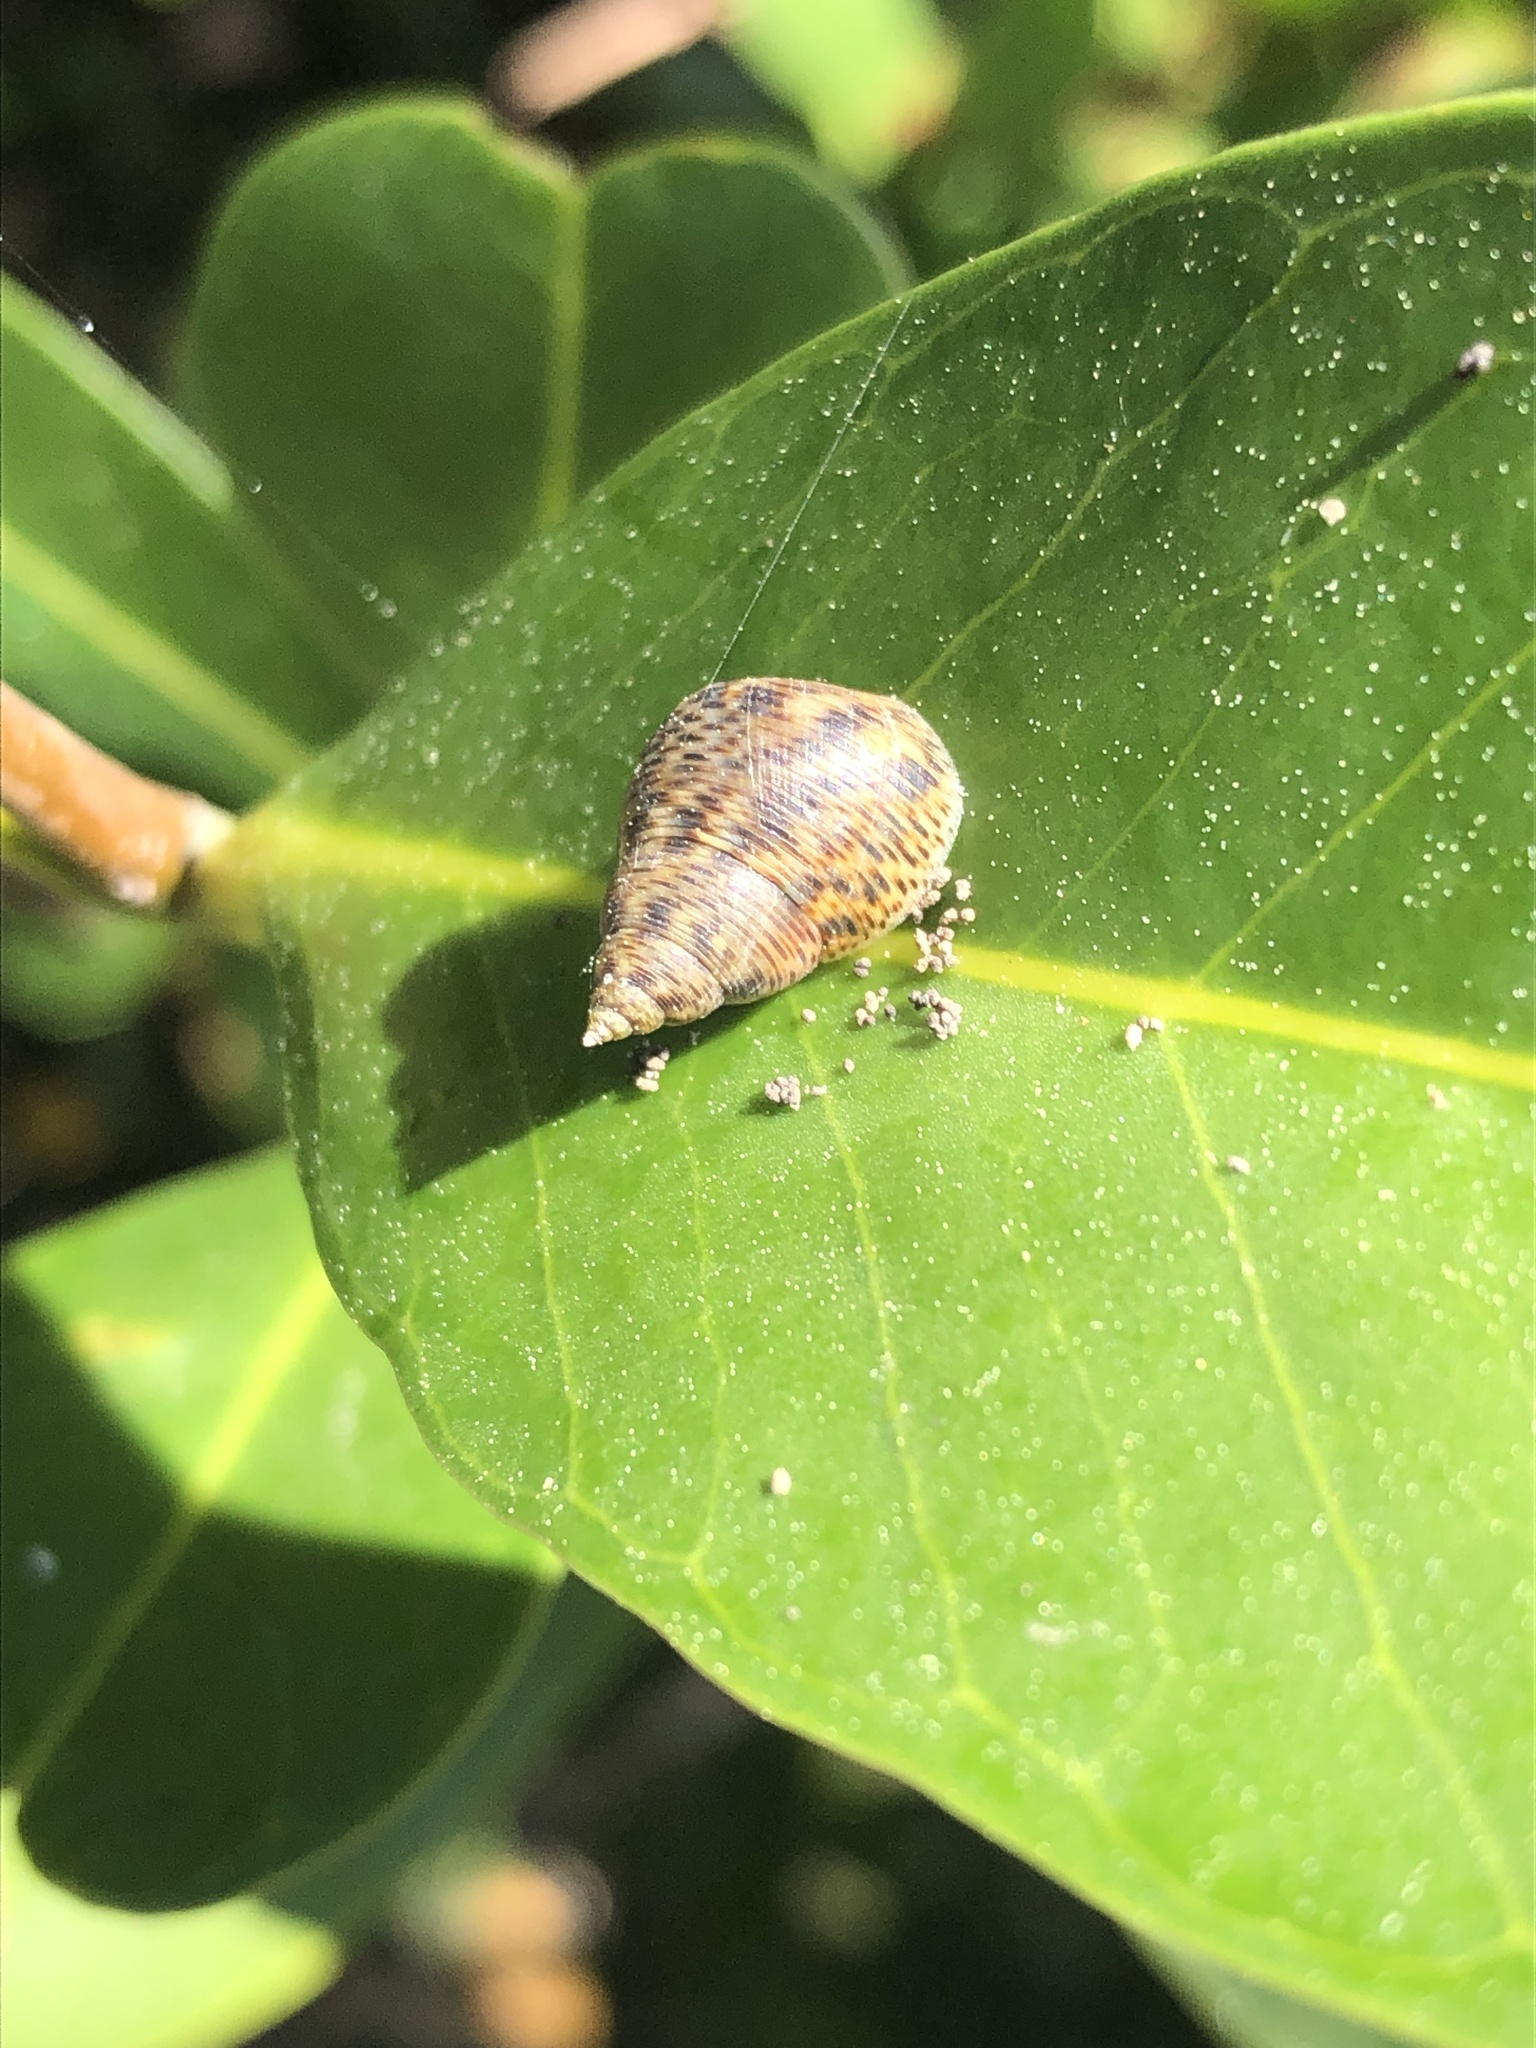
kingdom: Animalia
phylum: Mollusca
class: Gastropoda
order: Littorinimorpha
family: Littorinidae
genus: Littoraria
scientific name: Littoraria angulifera
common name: Mangrove periwinkle
